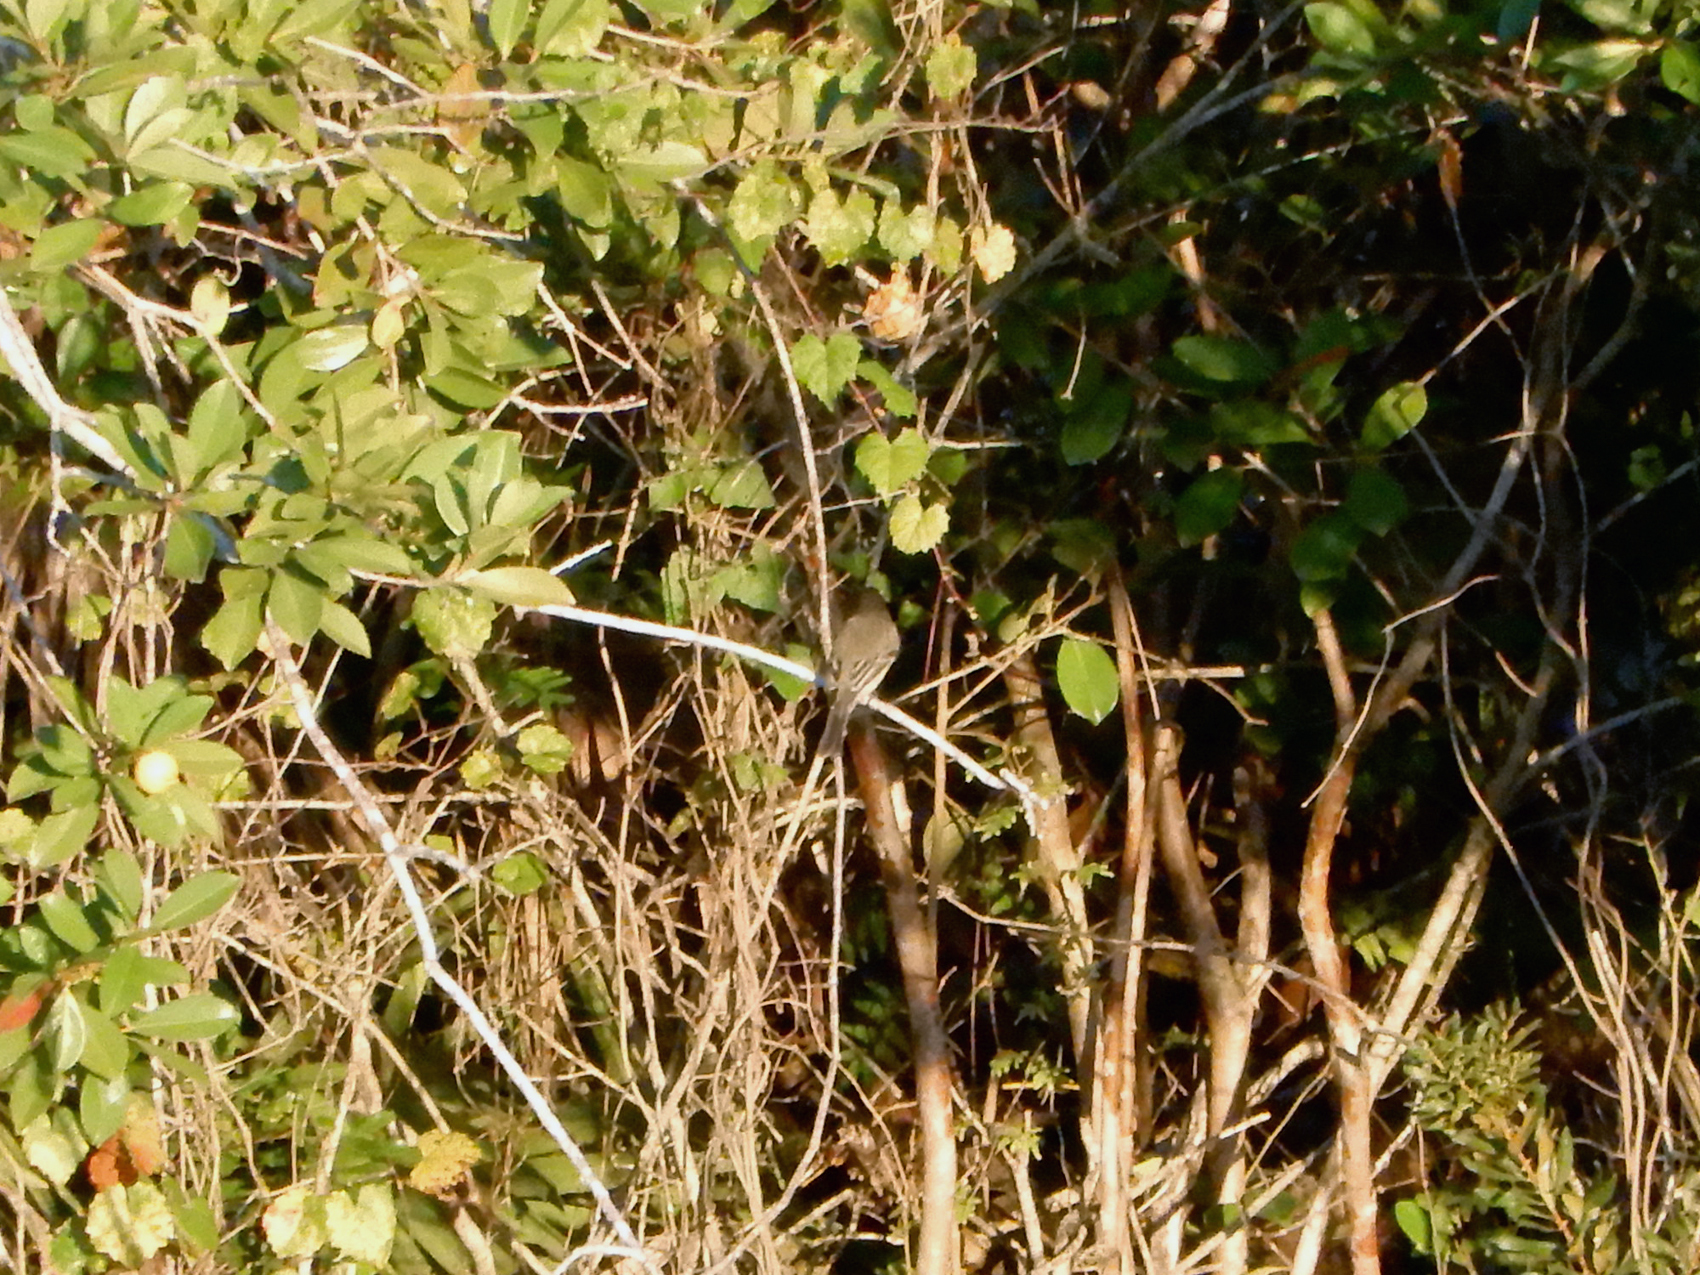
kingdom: Animalia
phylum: Chordata
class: Aves
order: Passeriformes
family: Tyrannidae
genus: Sayornis
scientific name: Sayornis phoebe
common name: Eastern phoebe
